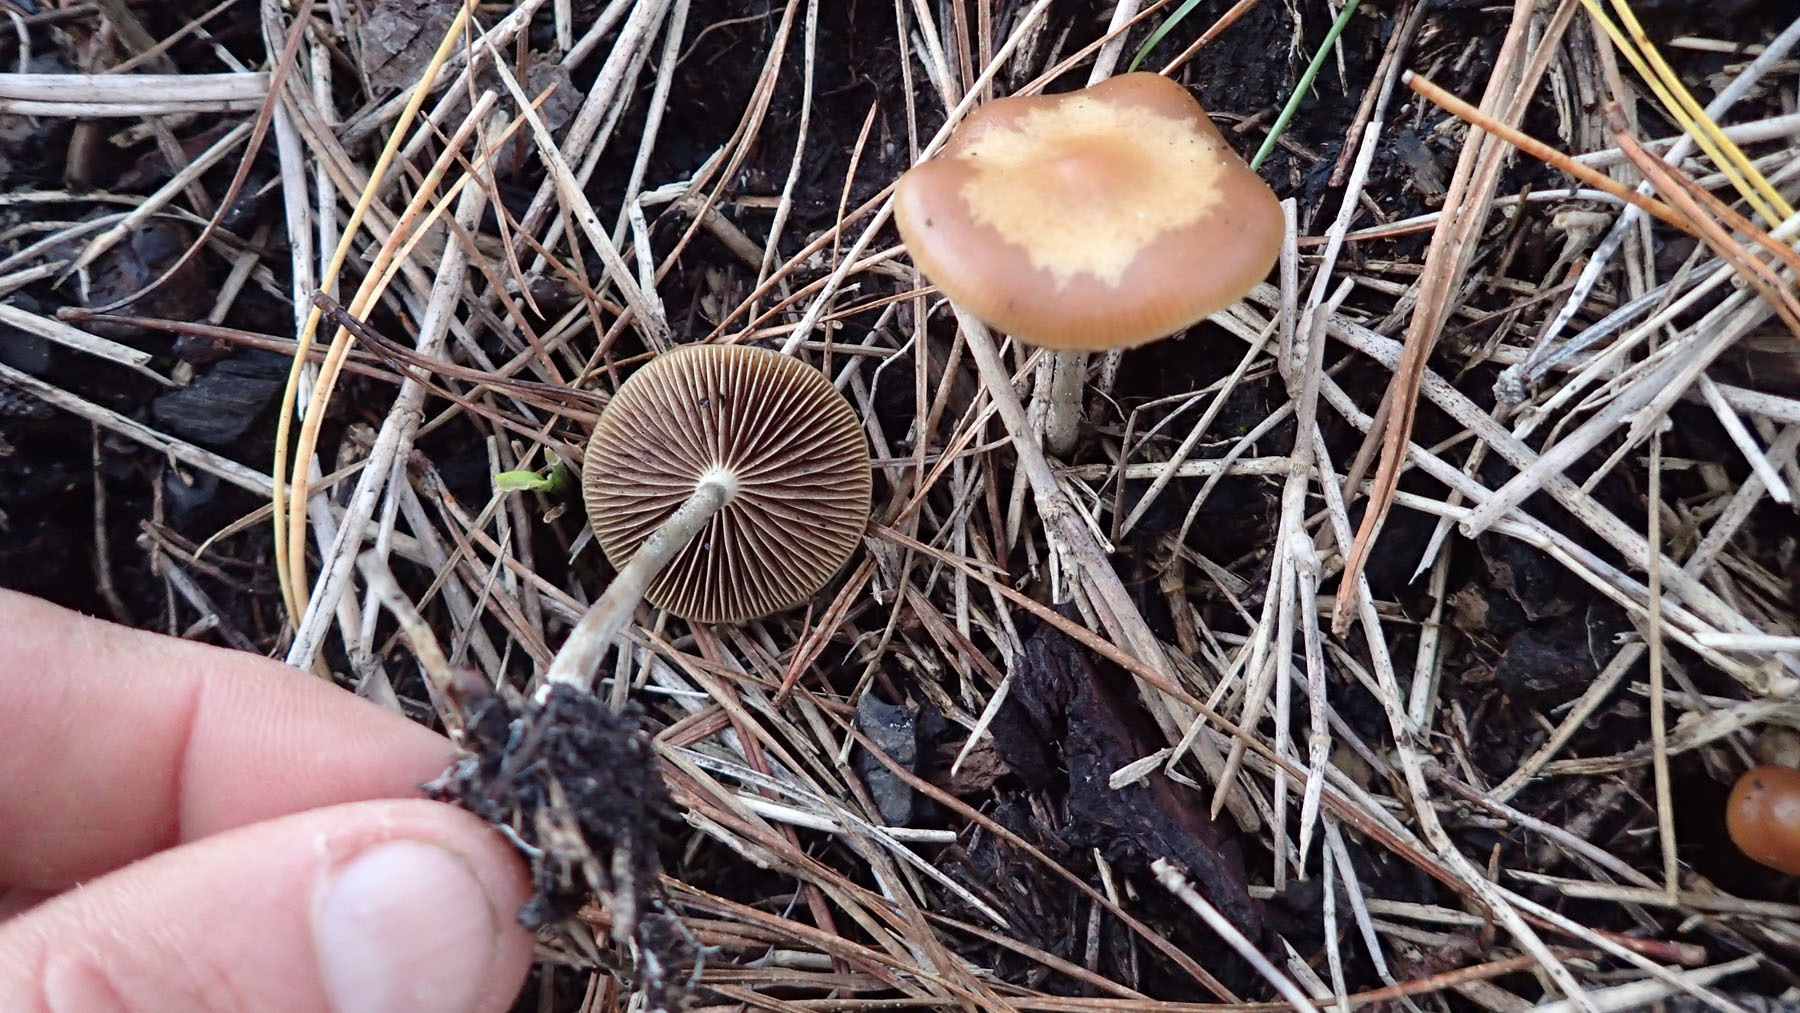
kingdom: Fungi
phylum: Basidiomycota
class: Agaricomycetes
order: Agaricales
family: Hymenogastraceae
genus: Psilocybe
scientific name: Psilocybe cyanescens
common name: Blueleg brownie
